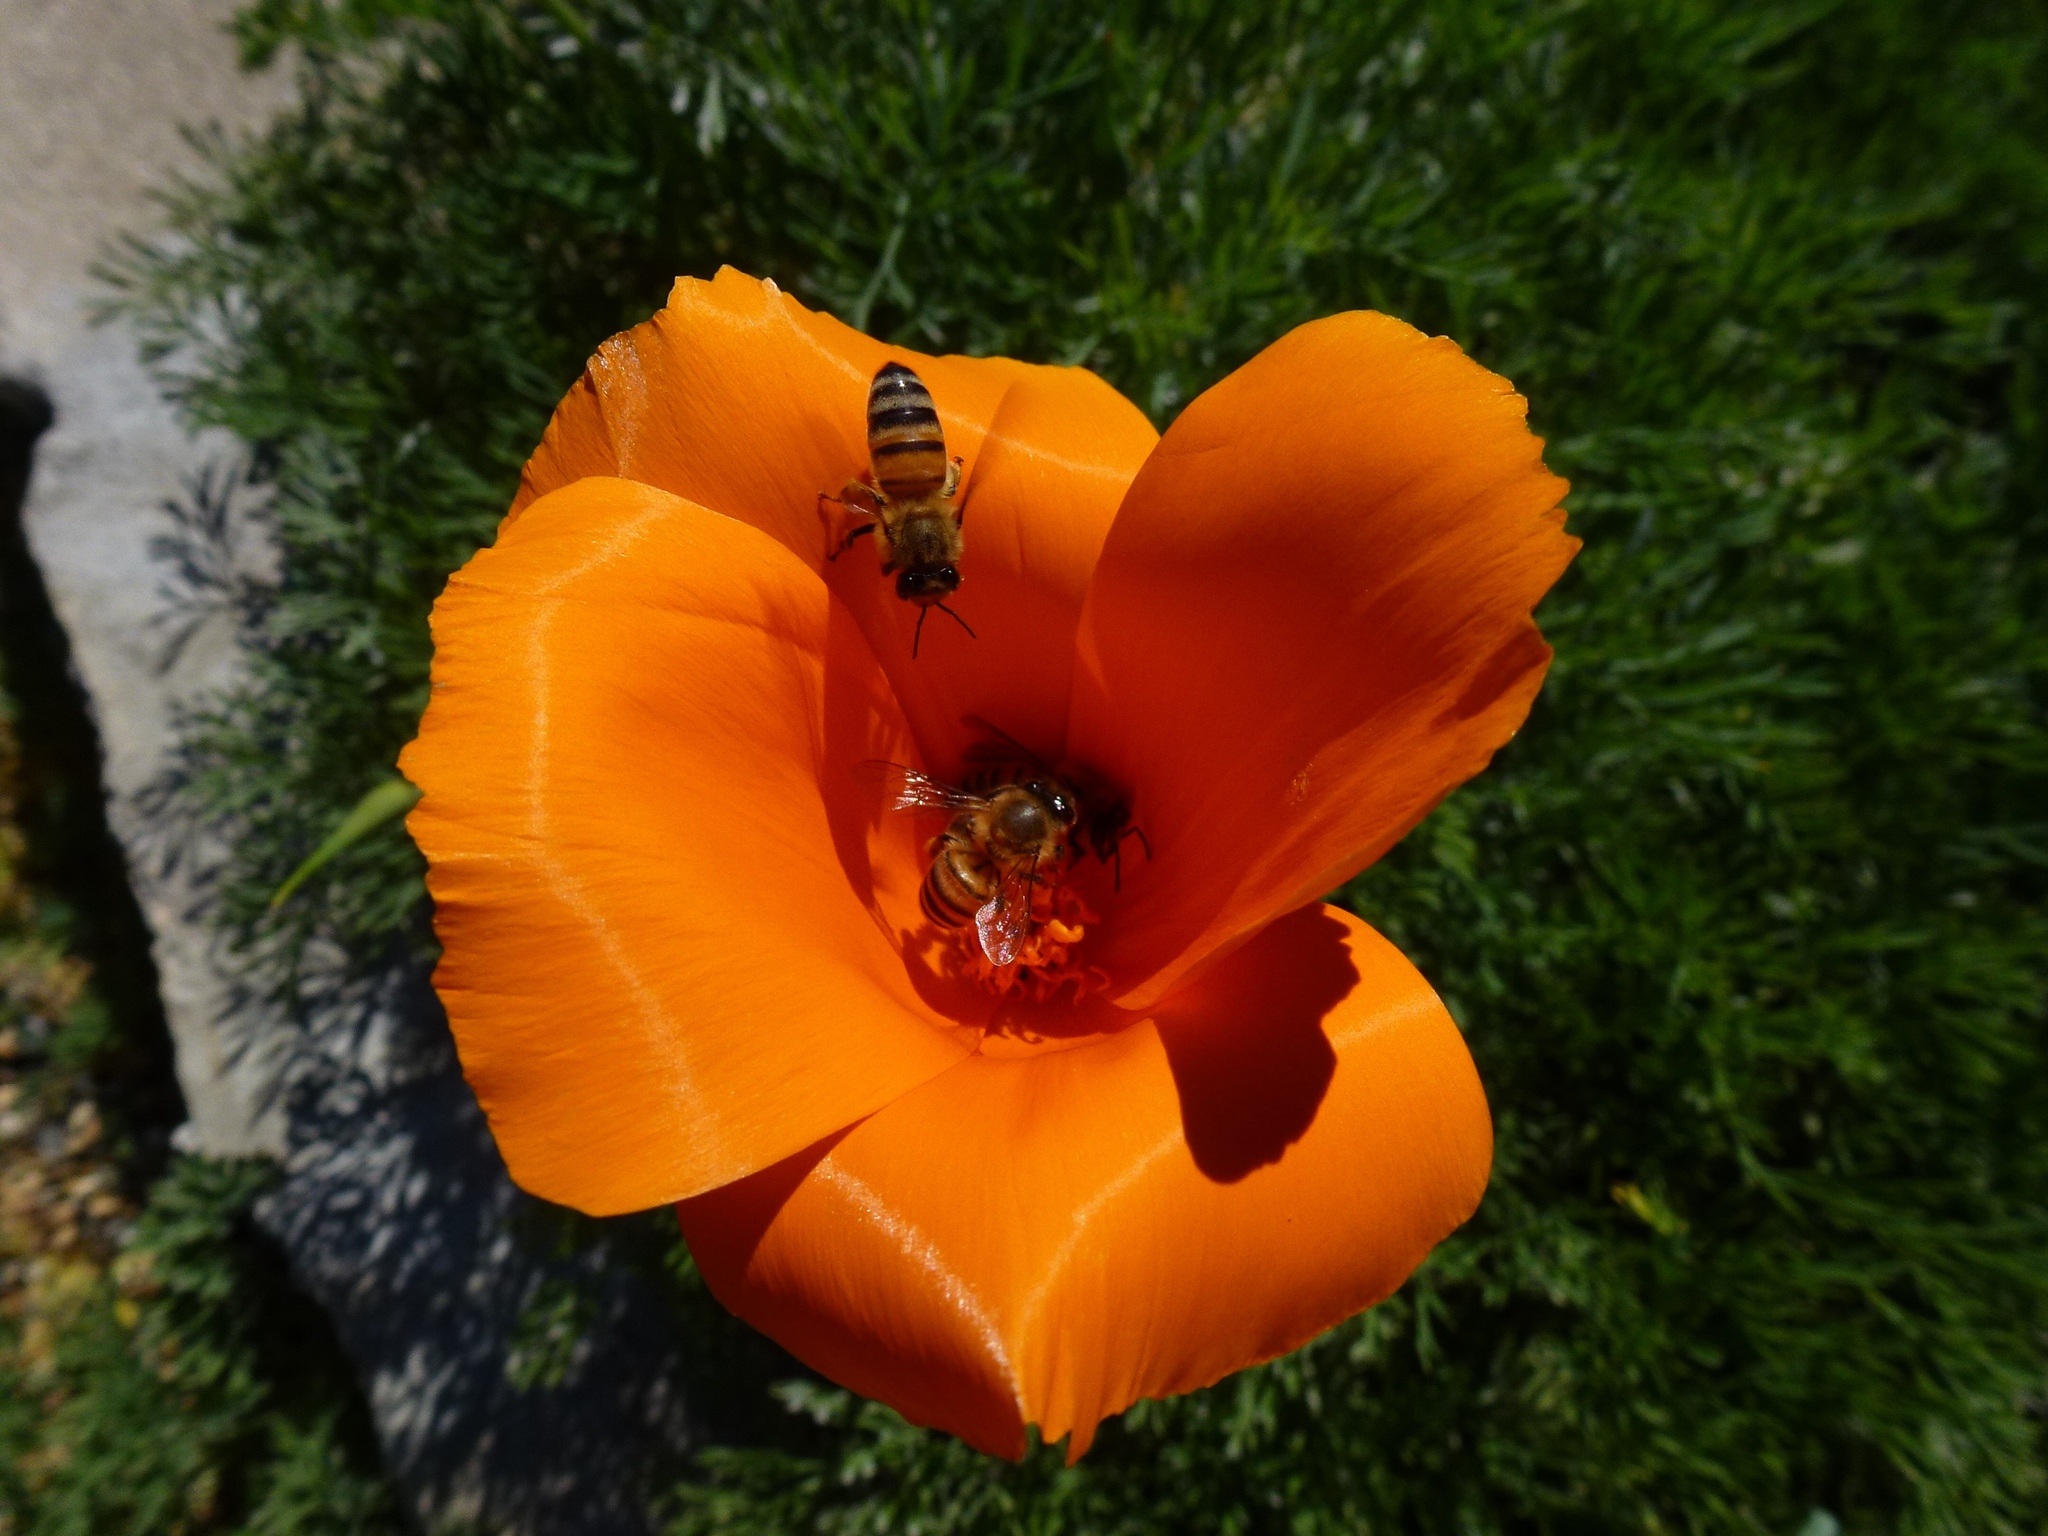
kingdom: Plantae
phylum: Tracheophyta
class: Magnoliopsida
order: Ranunculales
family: Papaveraceae
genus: Eschscholzia
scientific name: Eschscholzia californica
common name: California poppy
